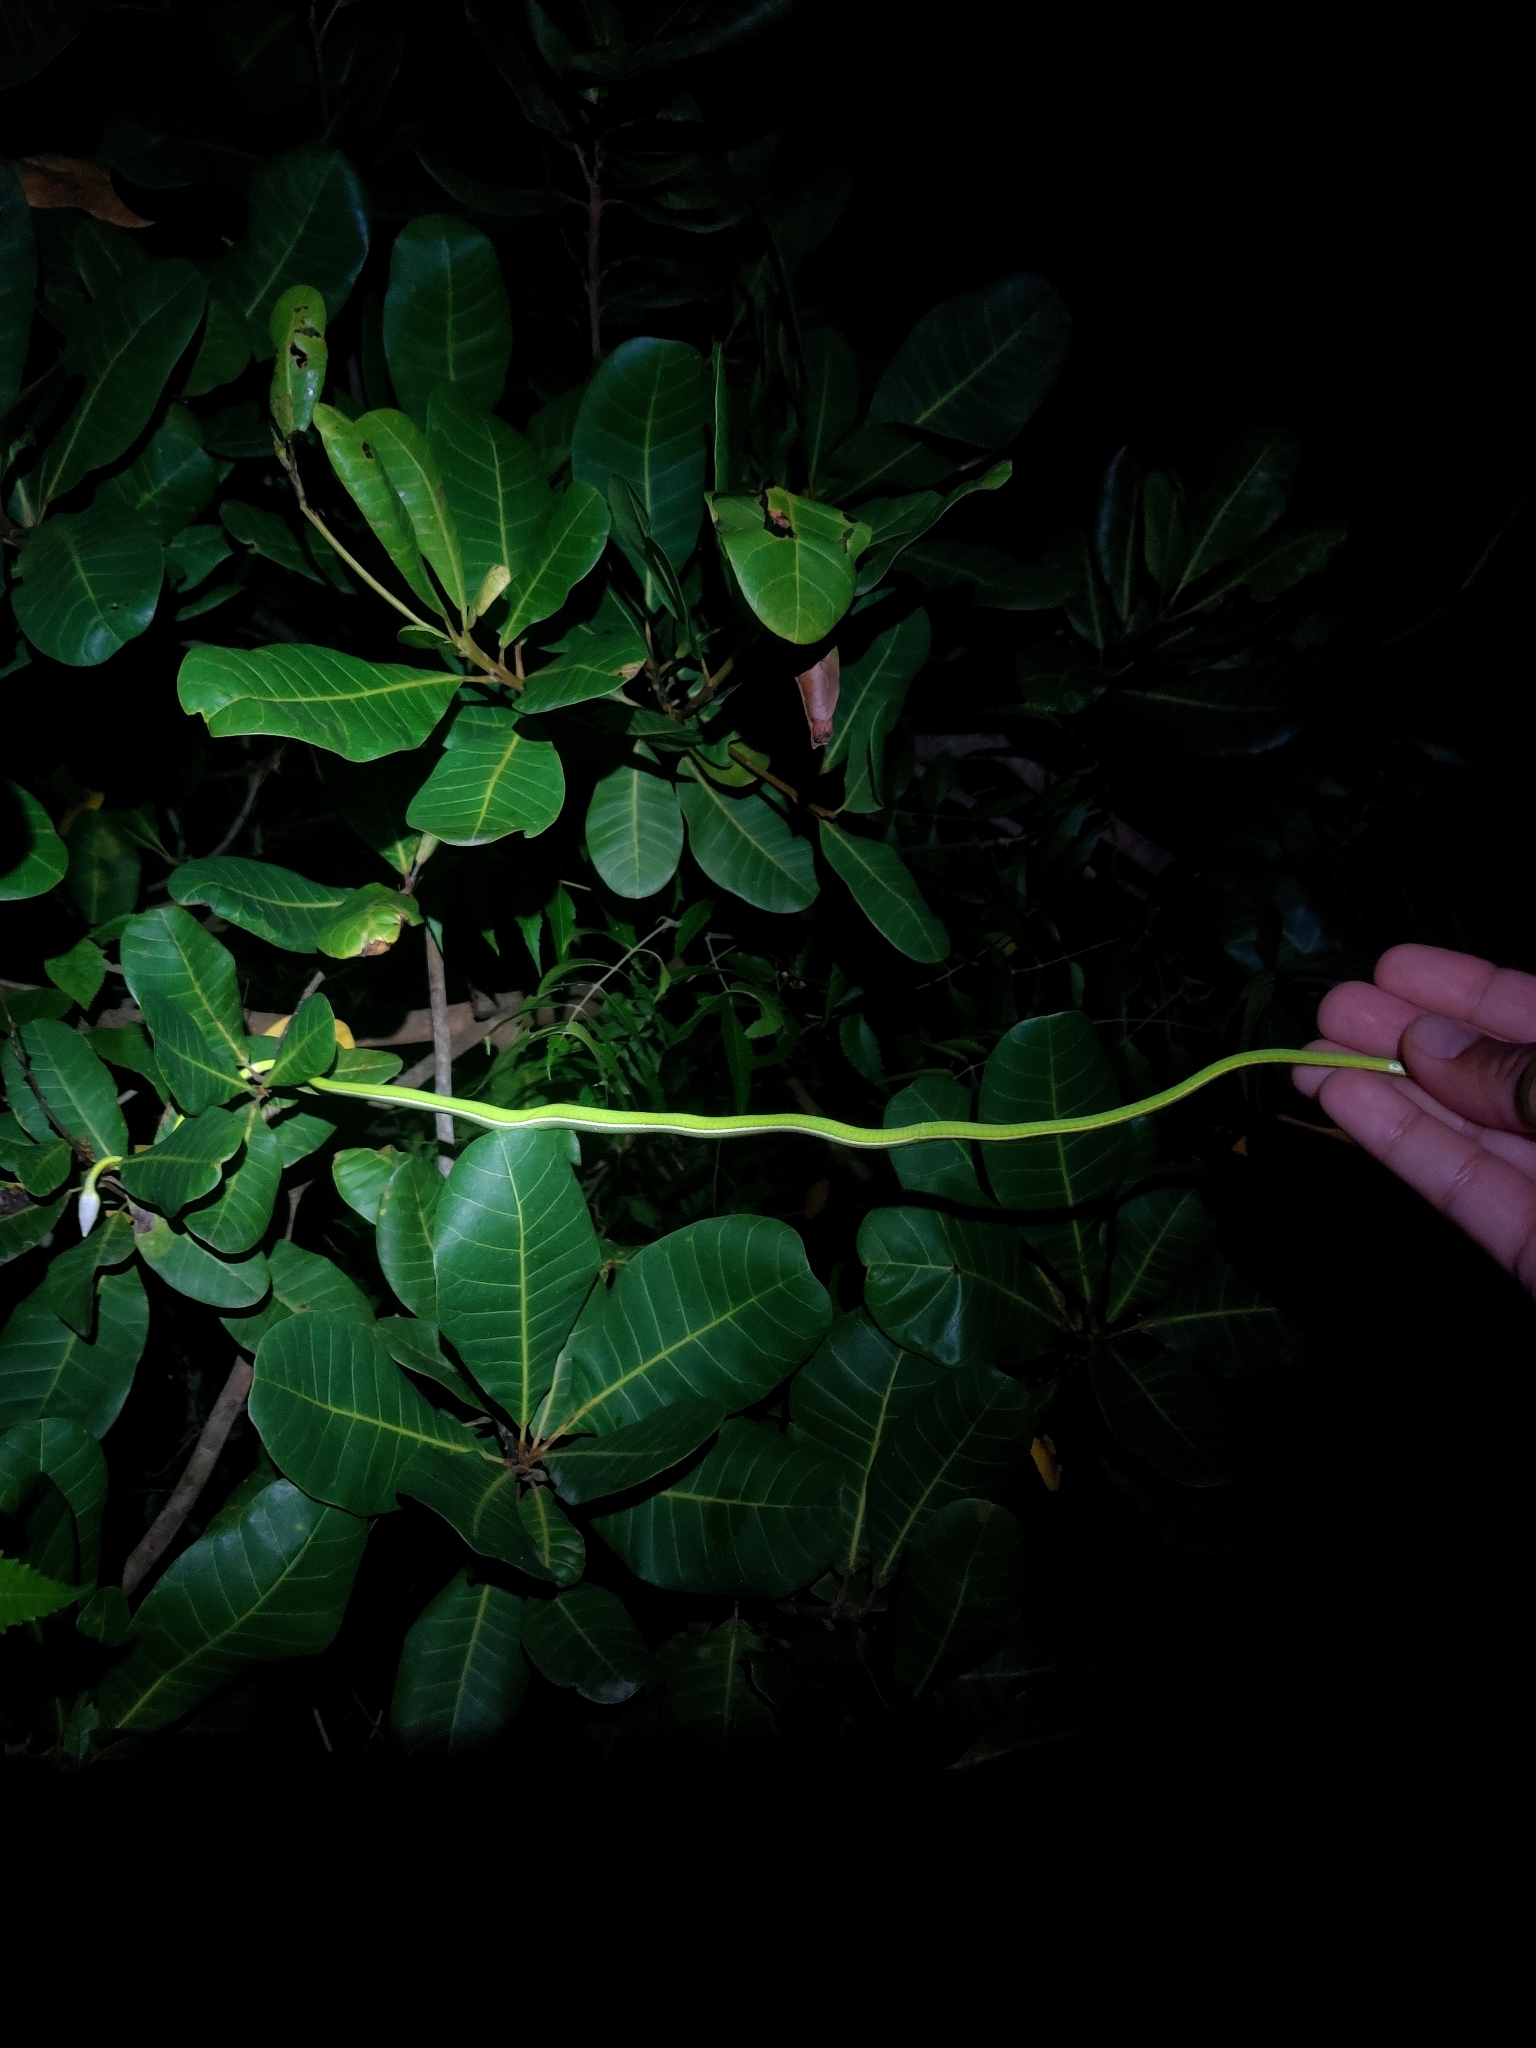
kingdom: Animalia
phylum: Chordata
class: Squamata
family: Colubridae
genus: Ahaetulla
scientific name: Ahaetulla oxyrhyncha
